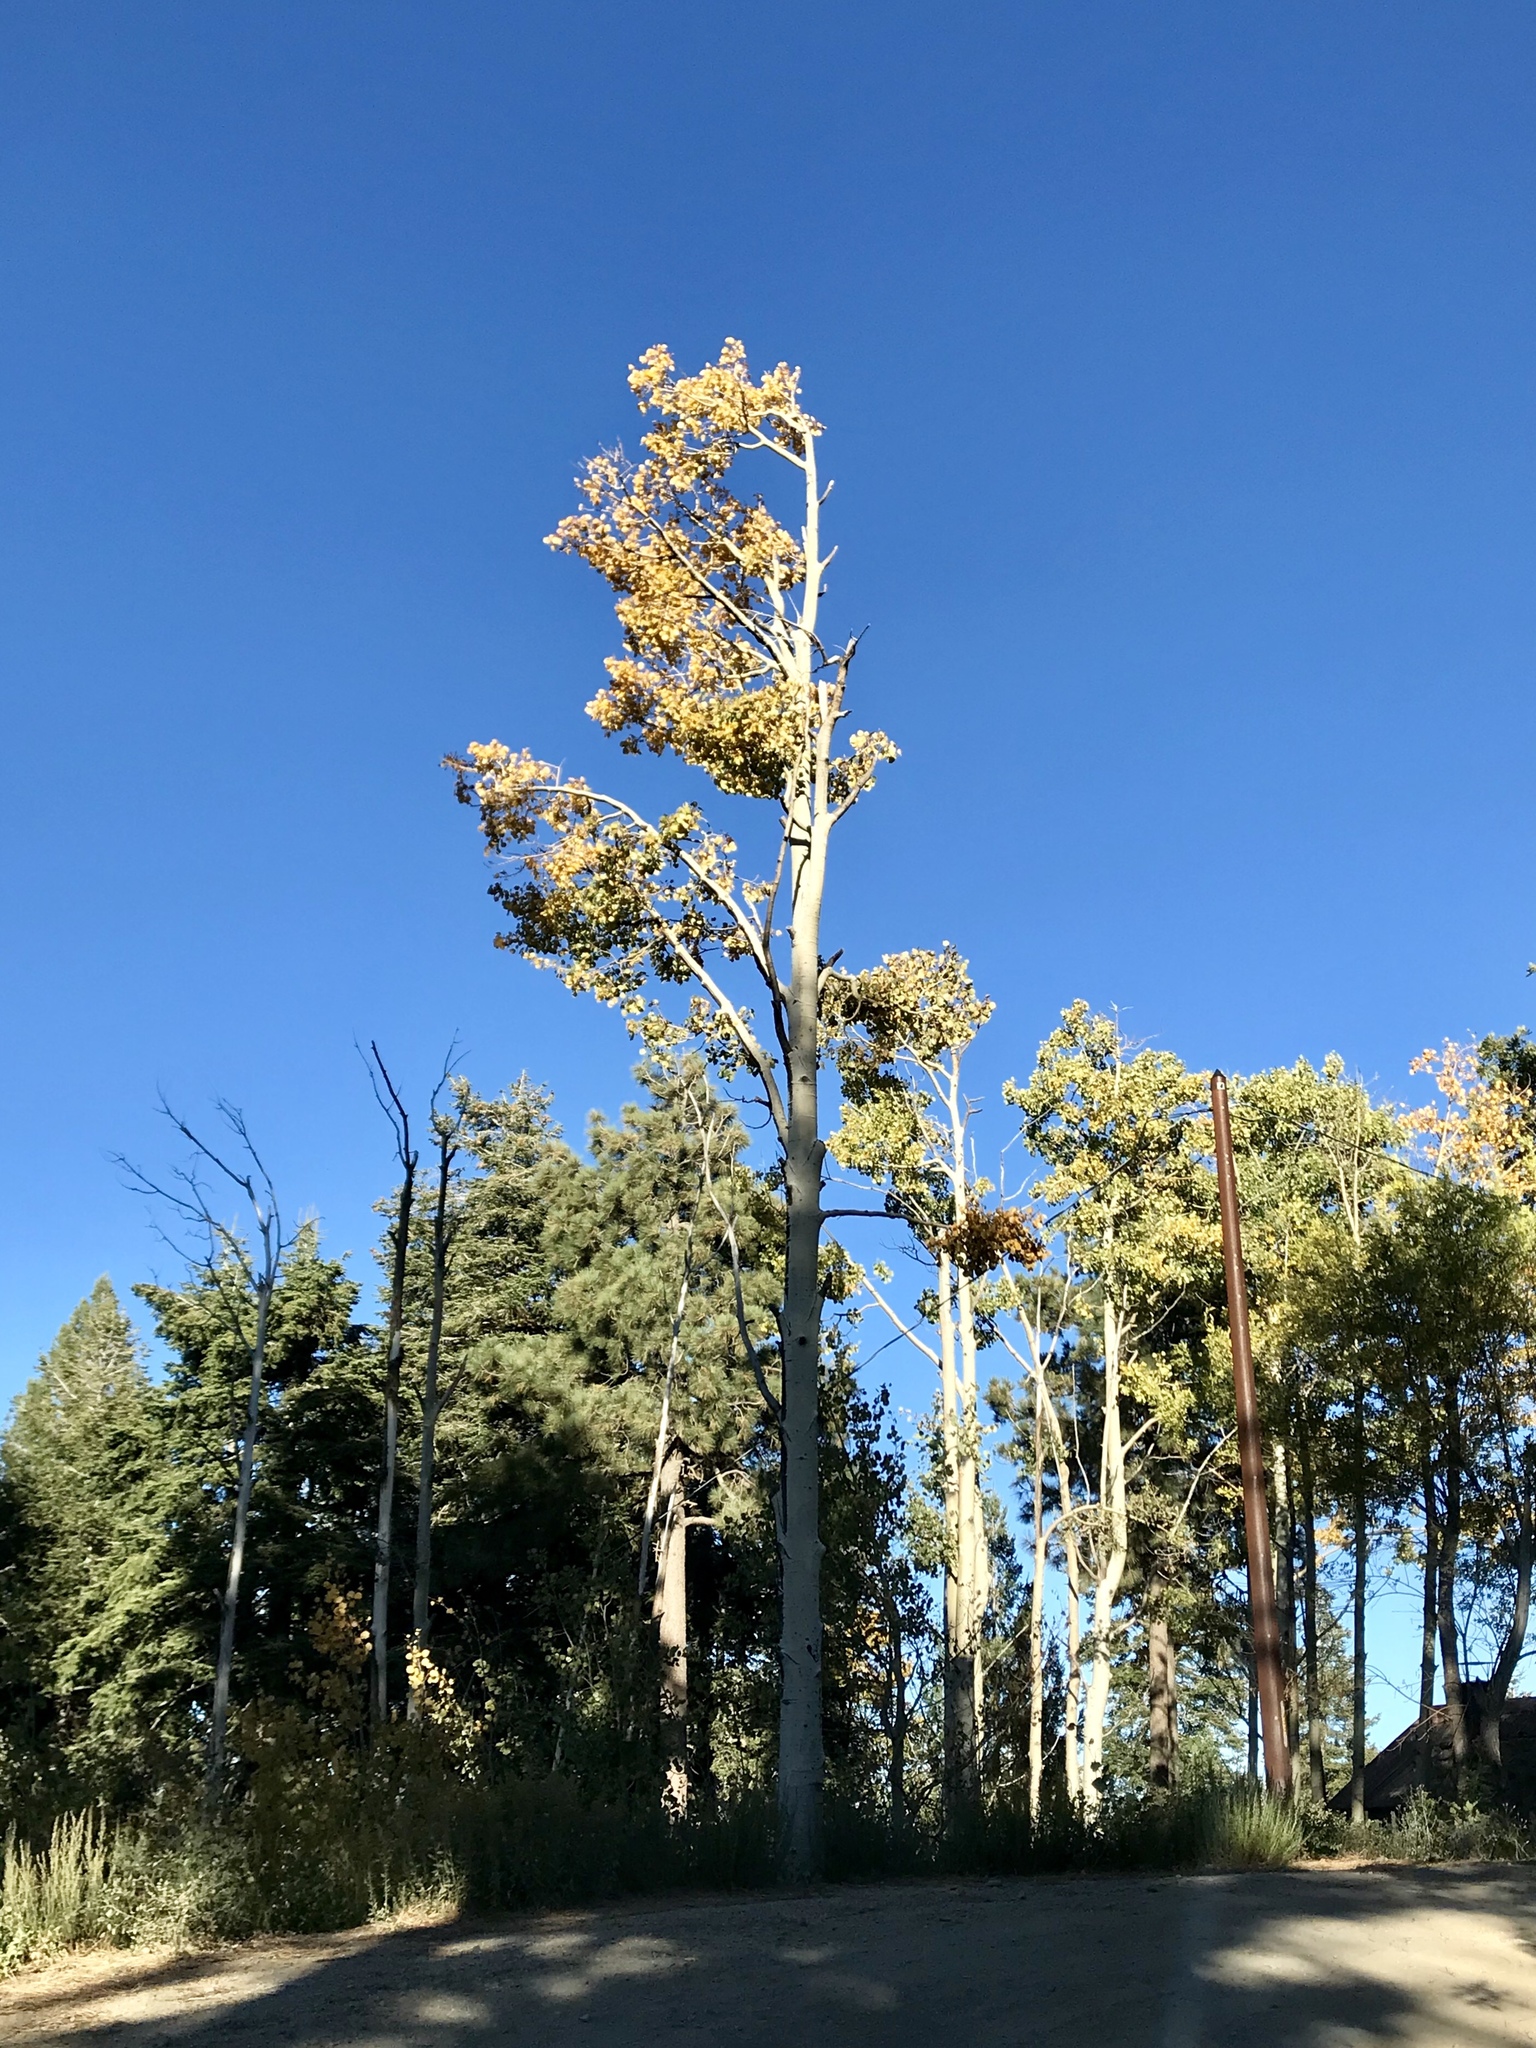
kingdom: Plantae
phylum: Tracheophyta
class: Magnoliopsida
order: Malpighiales
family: Salicaceae
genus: Populus
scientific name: Populus tremuloides
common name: Quaking aspen
